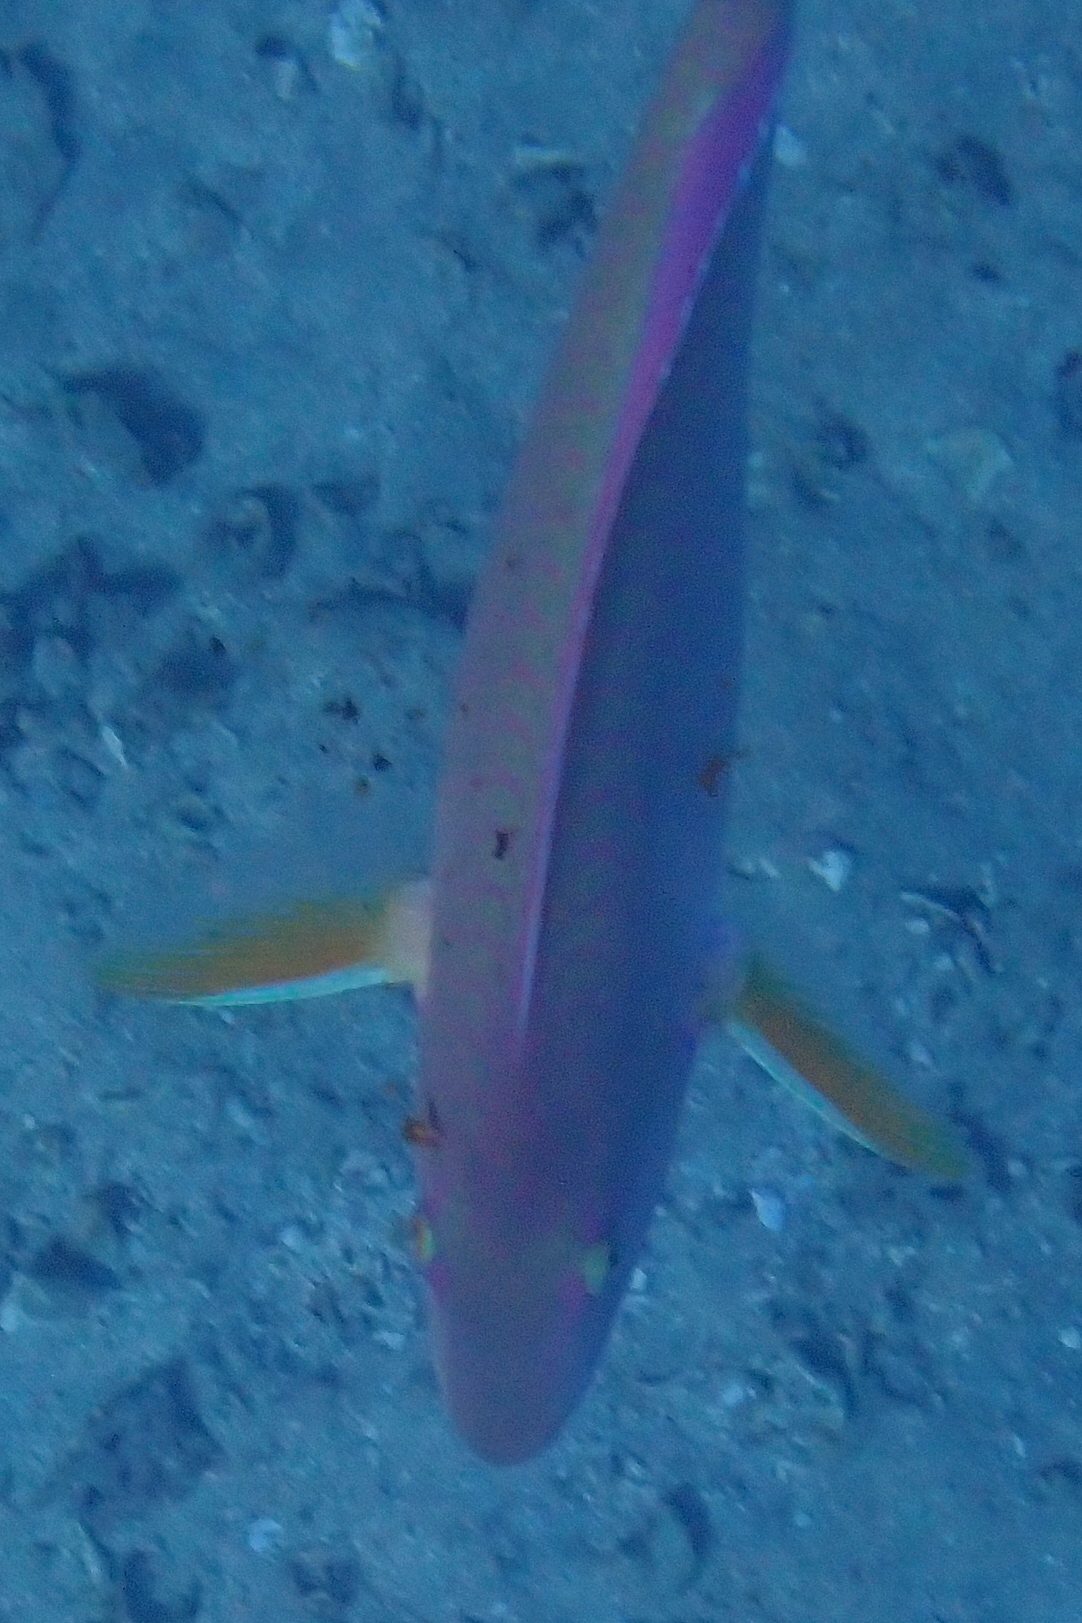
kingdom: Animalia
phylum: Chordata
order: Perciformes
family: Scaridae
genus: Hipposcarus
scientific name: Hipposcarus harid
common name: Candelamoa parrotfish
